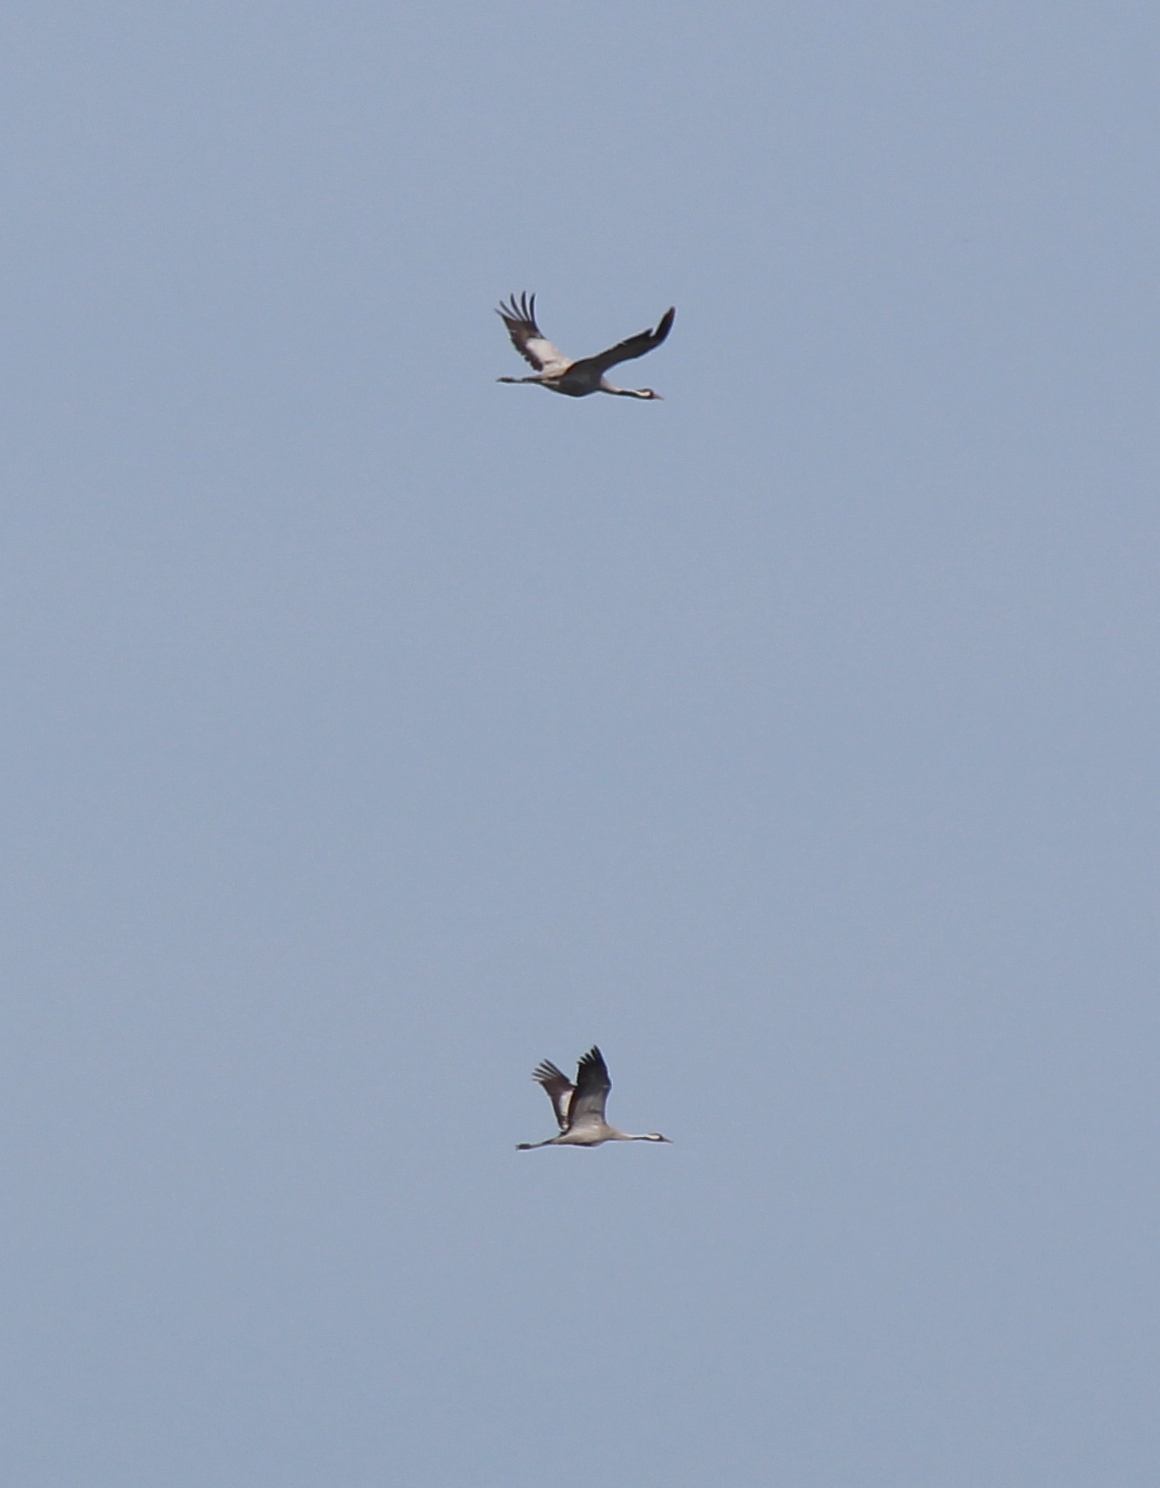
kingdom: Animalia
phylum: Chordata
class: Aves
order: Gruiformes
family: Gruidae
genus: Grus
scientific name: Grus grus
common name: Common crane
